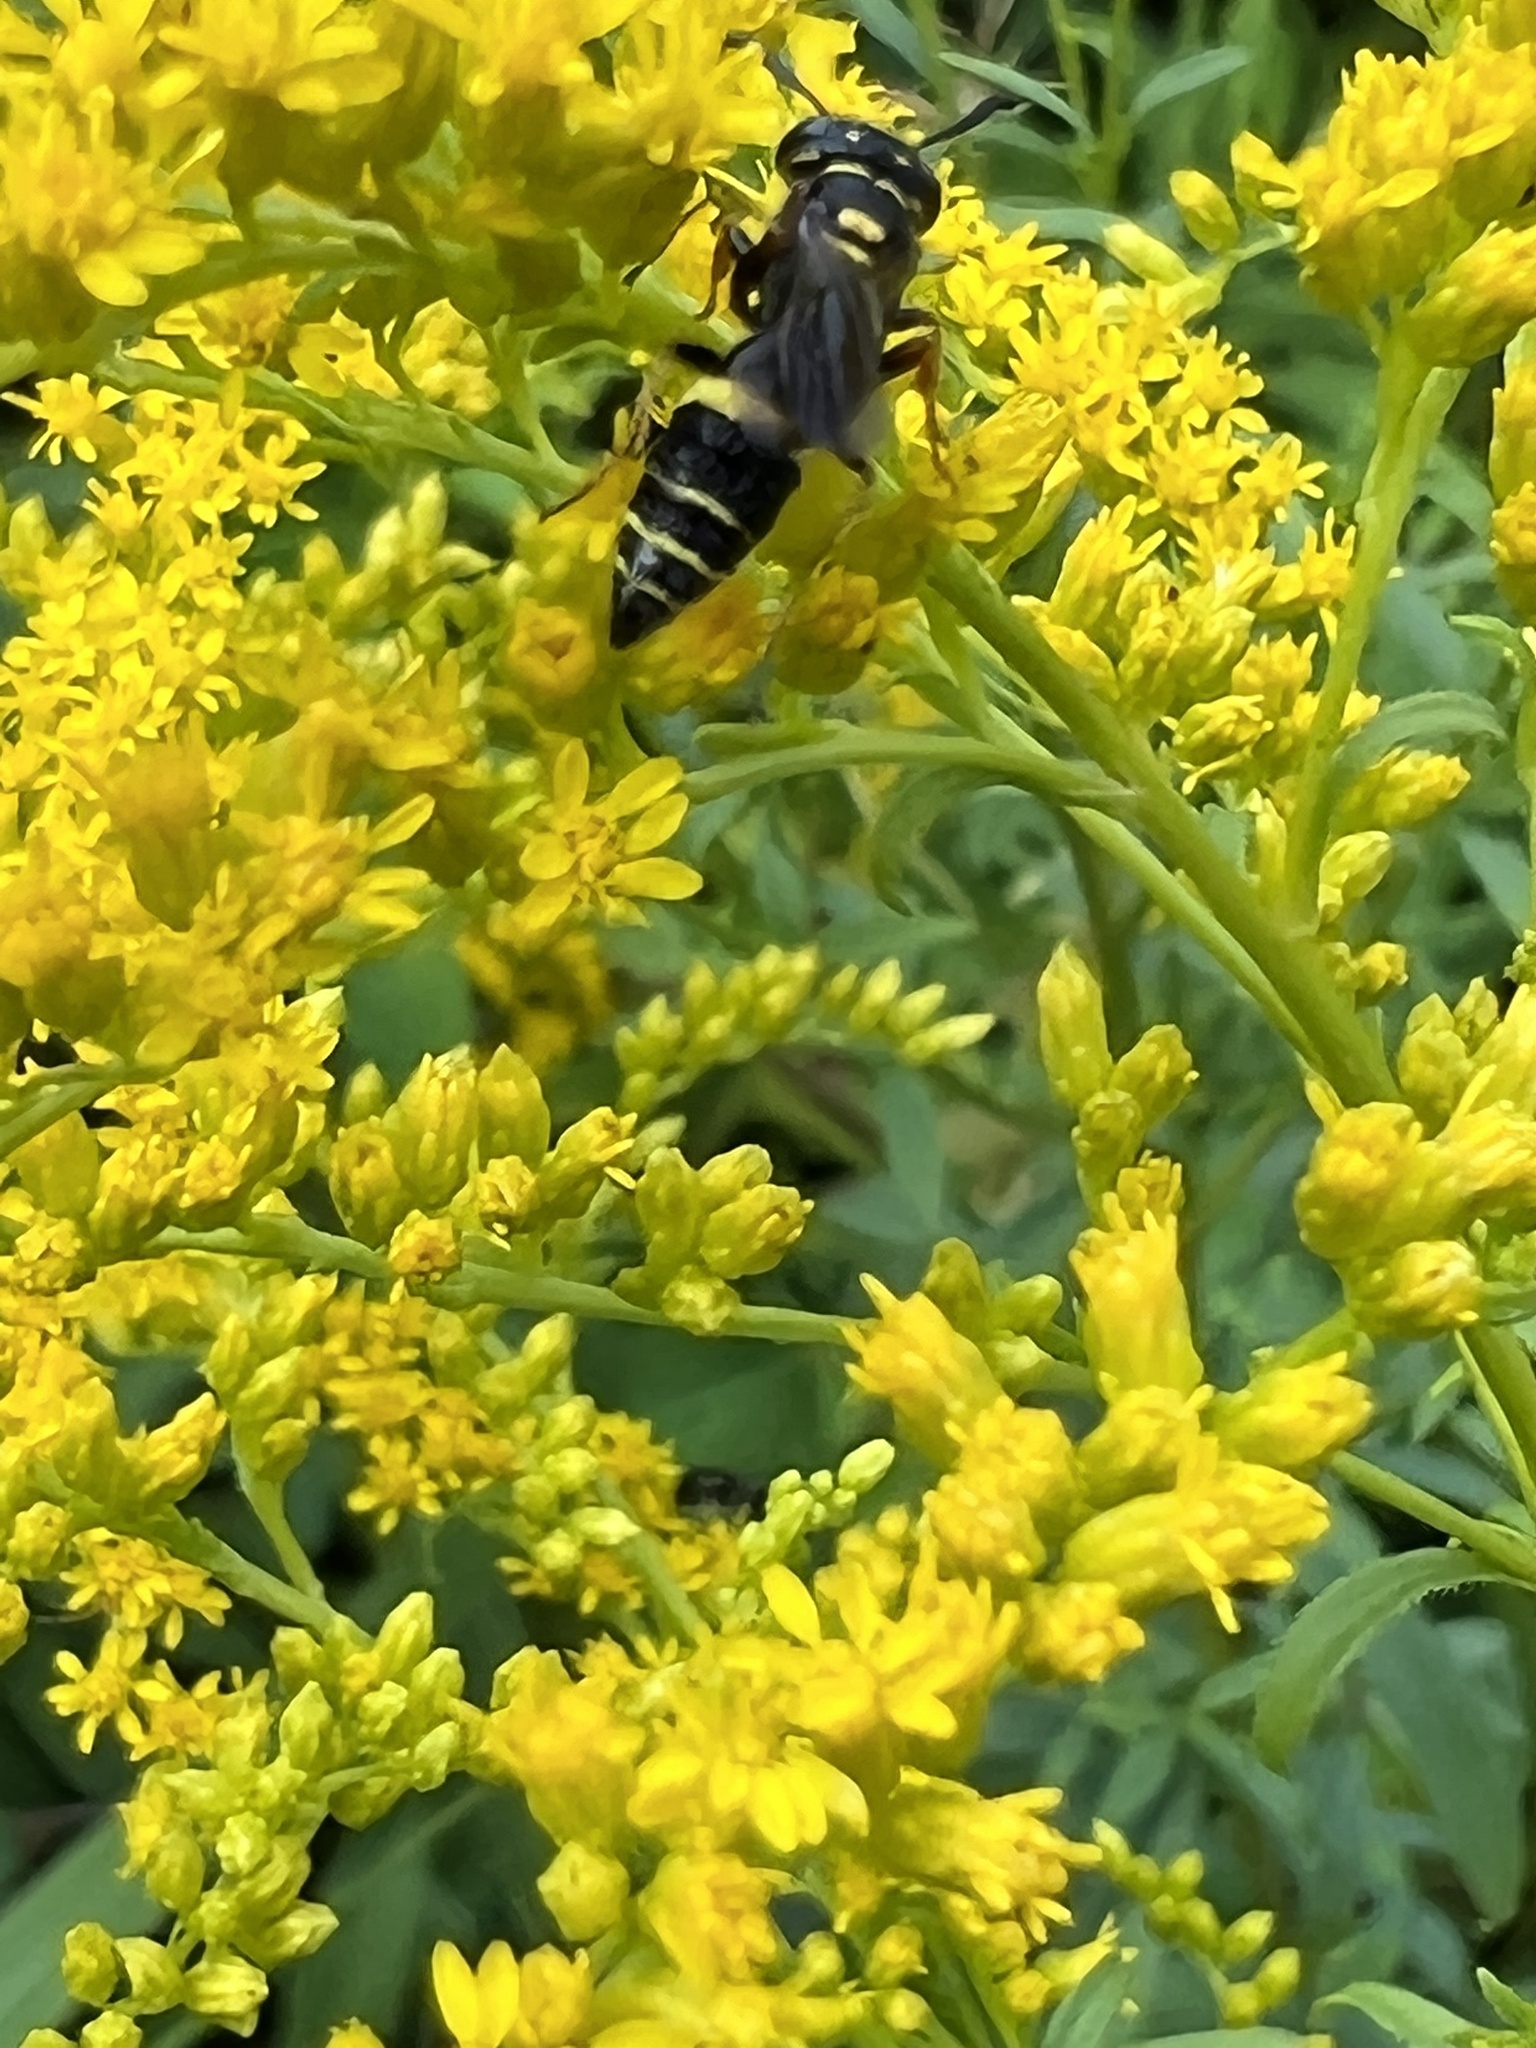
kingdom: Animalia
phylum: Arthropoda
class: Insecta
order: Hymenoptera
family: Crabronidae
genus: Philanthus
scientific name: Philanthus gibbosus
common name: Humped beewolf
